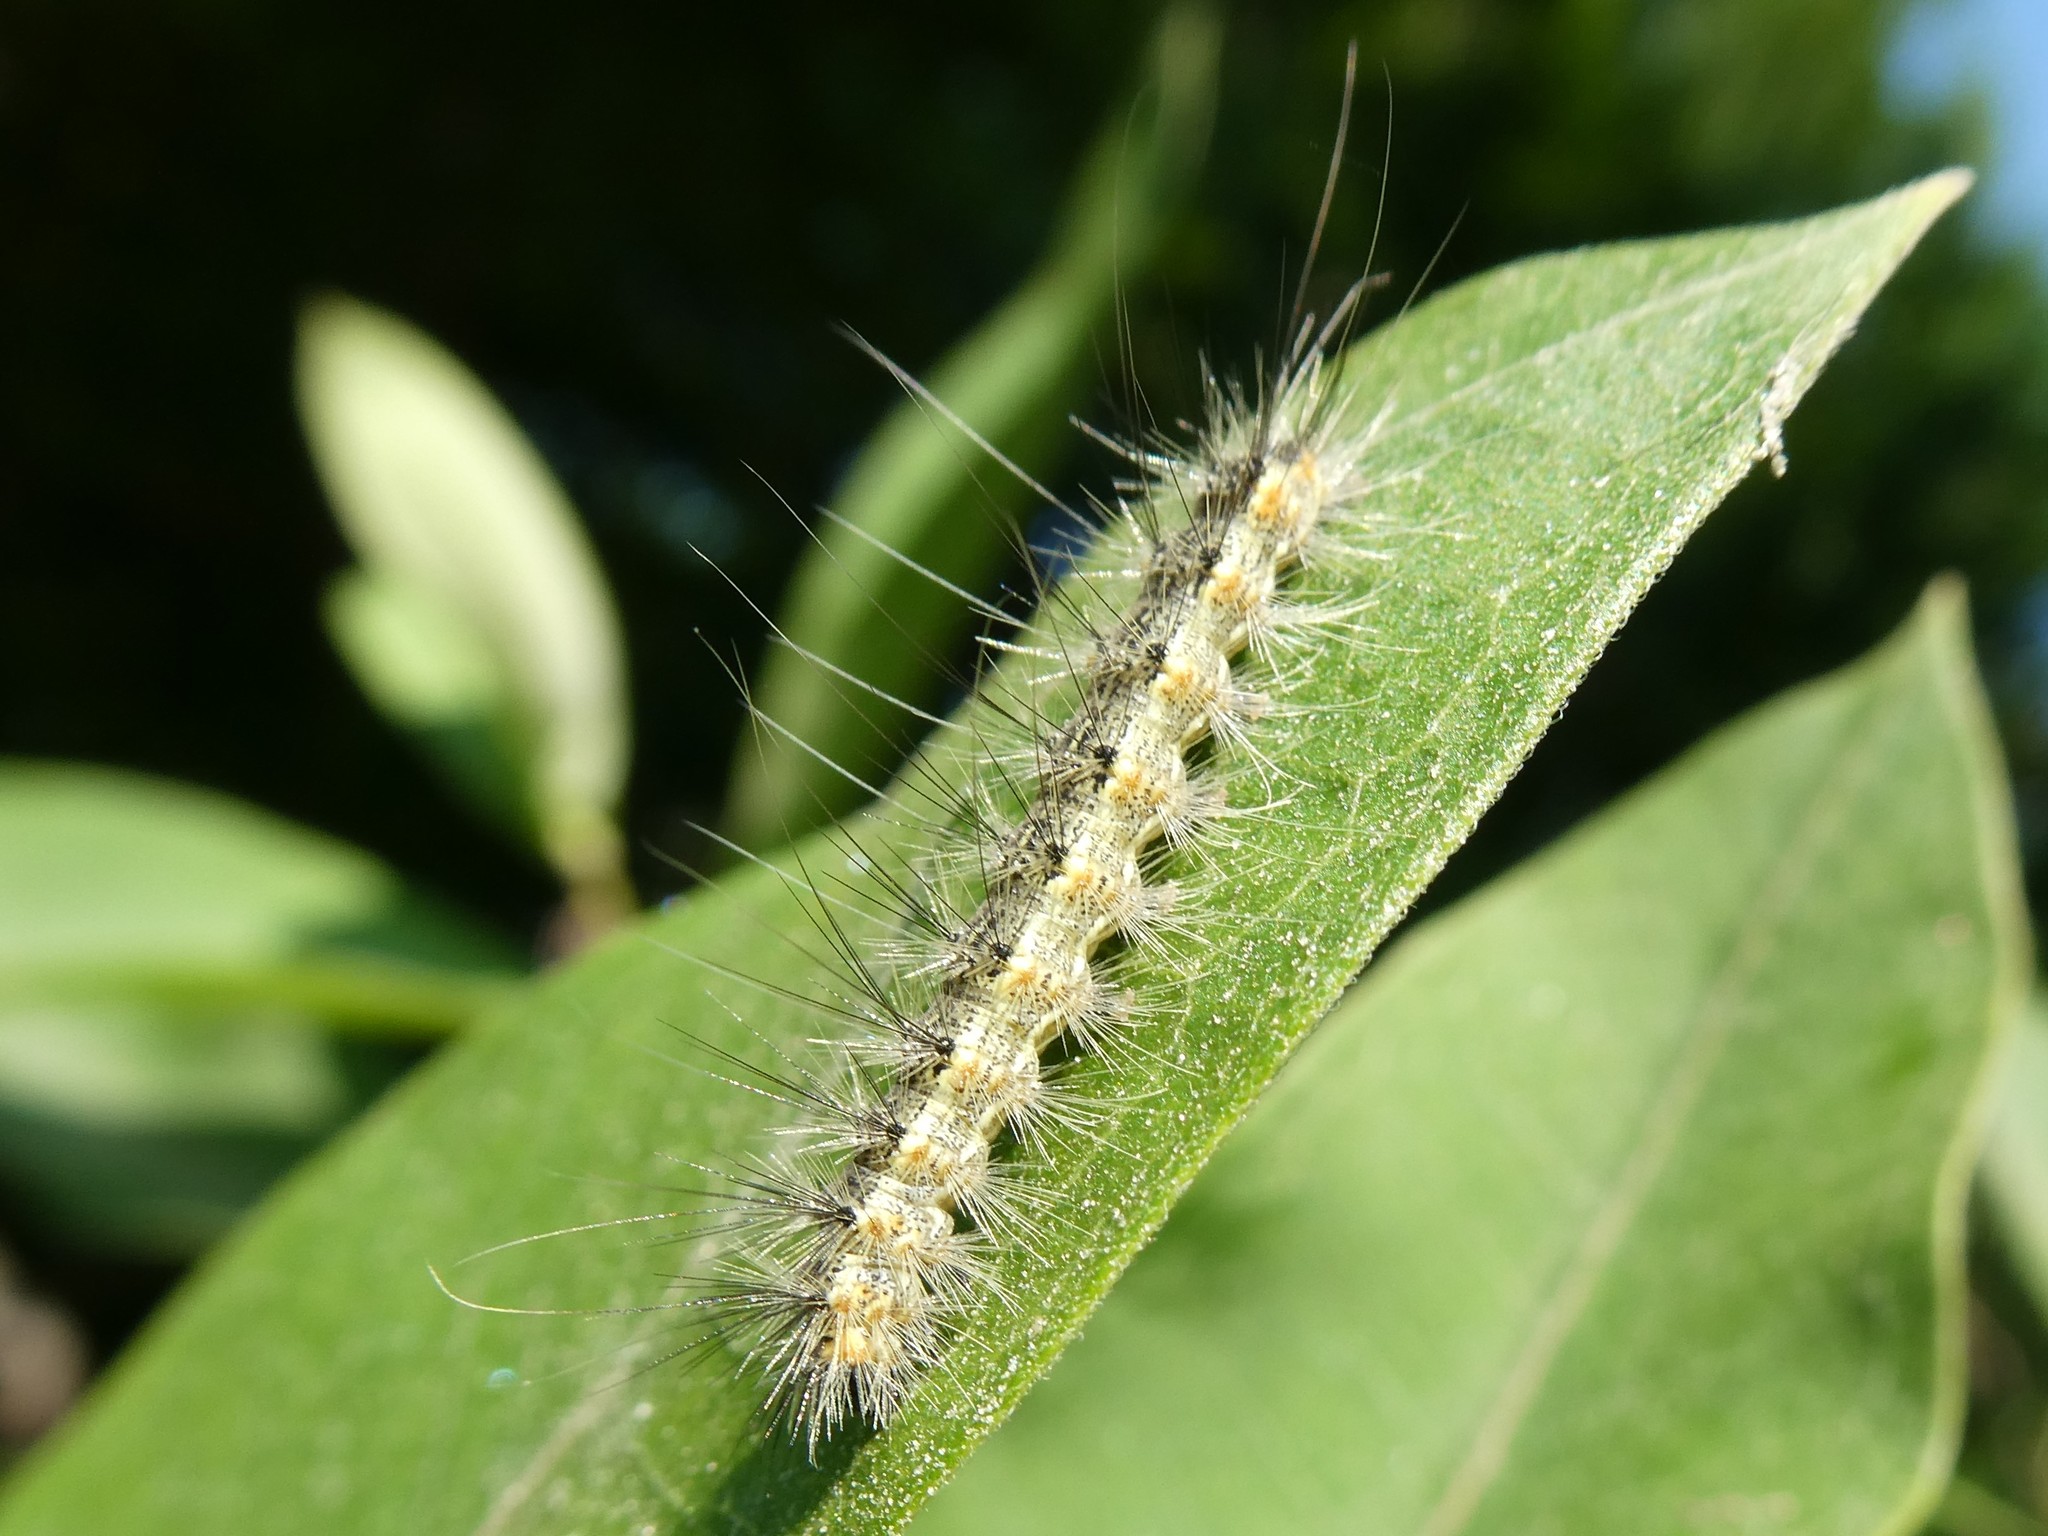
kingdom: Animalia
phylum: Arthropoda
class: Insecta
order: Lepidoptera
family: Erebidae
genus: Hyphantria
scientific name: Hyphantria cunea
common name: American white moth
